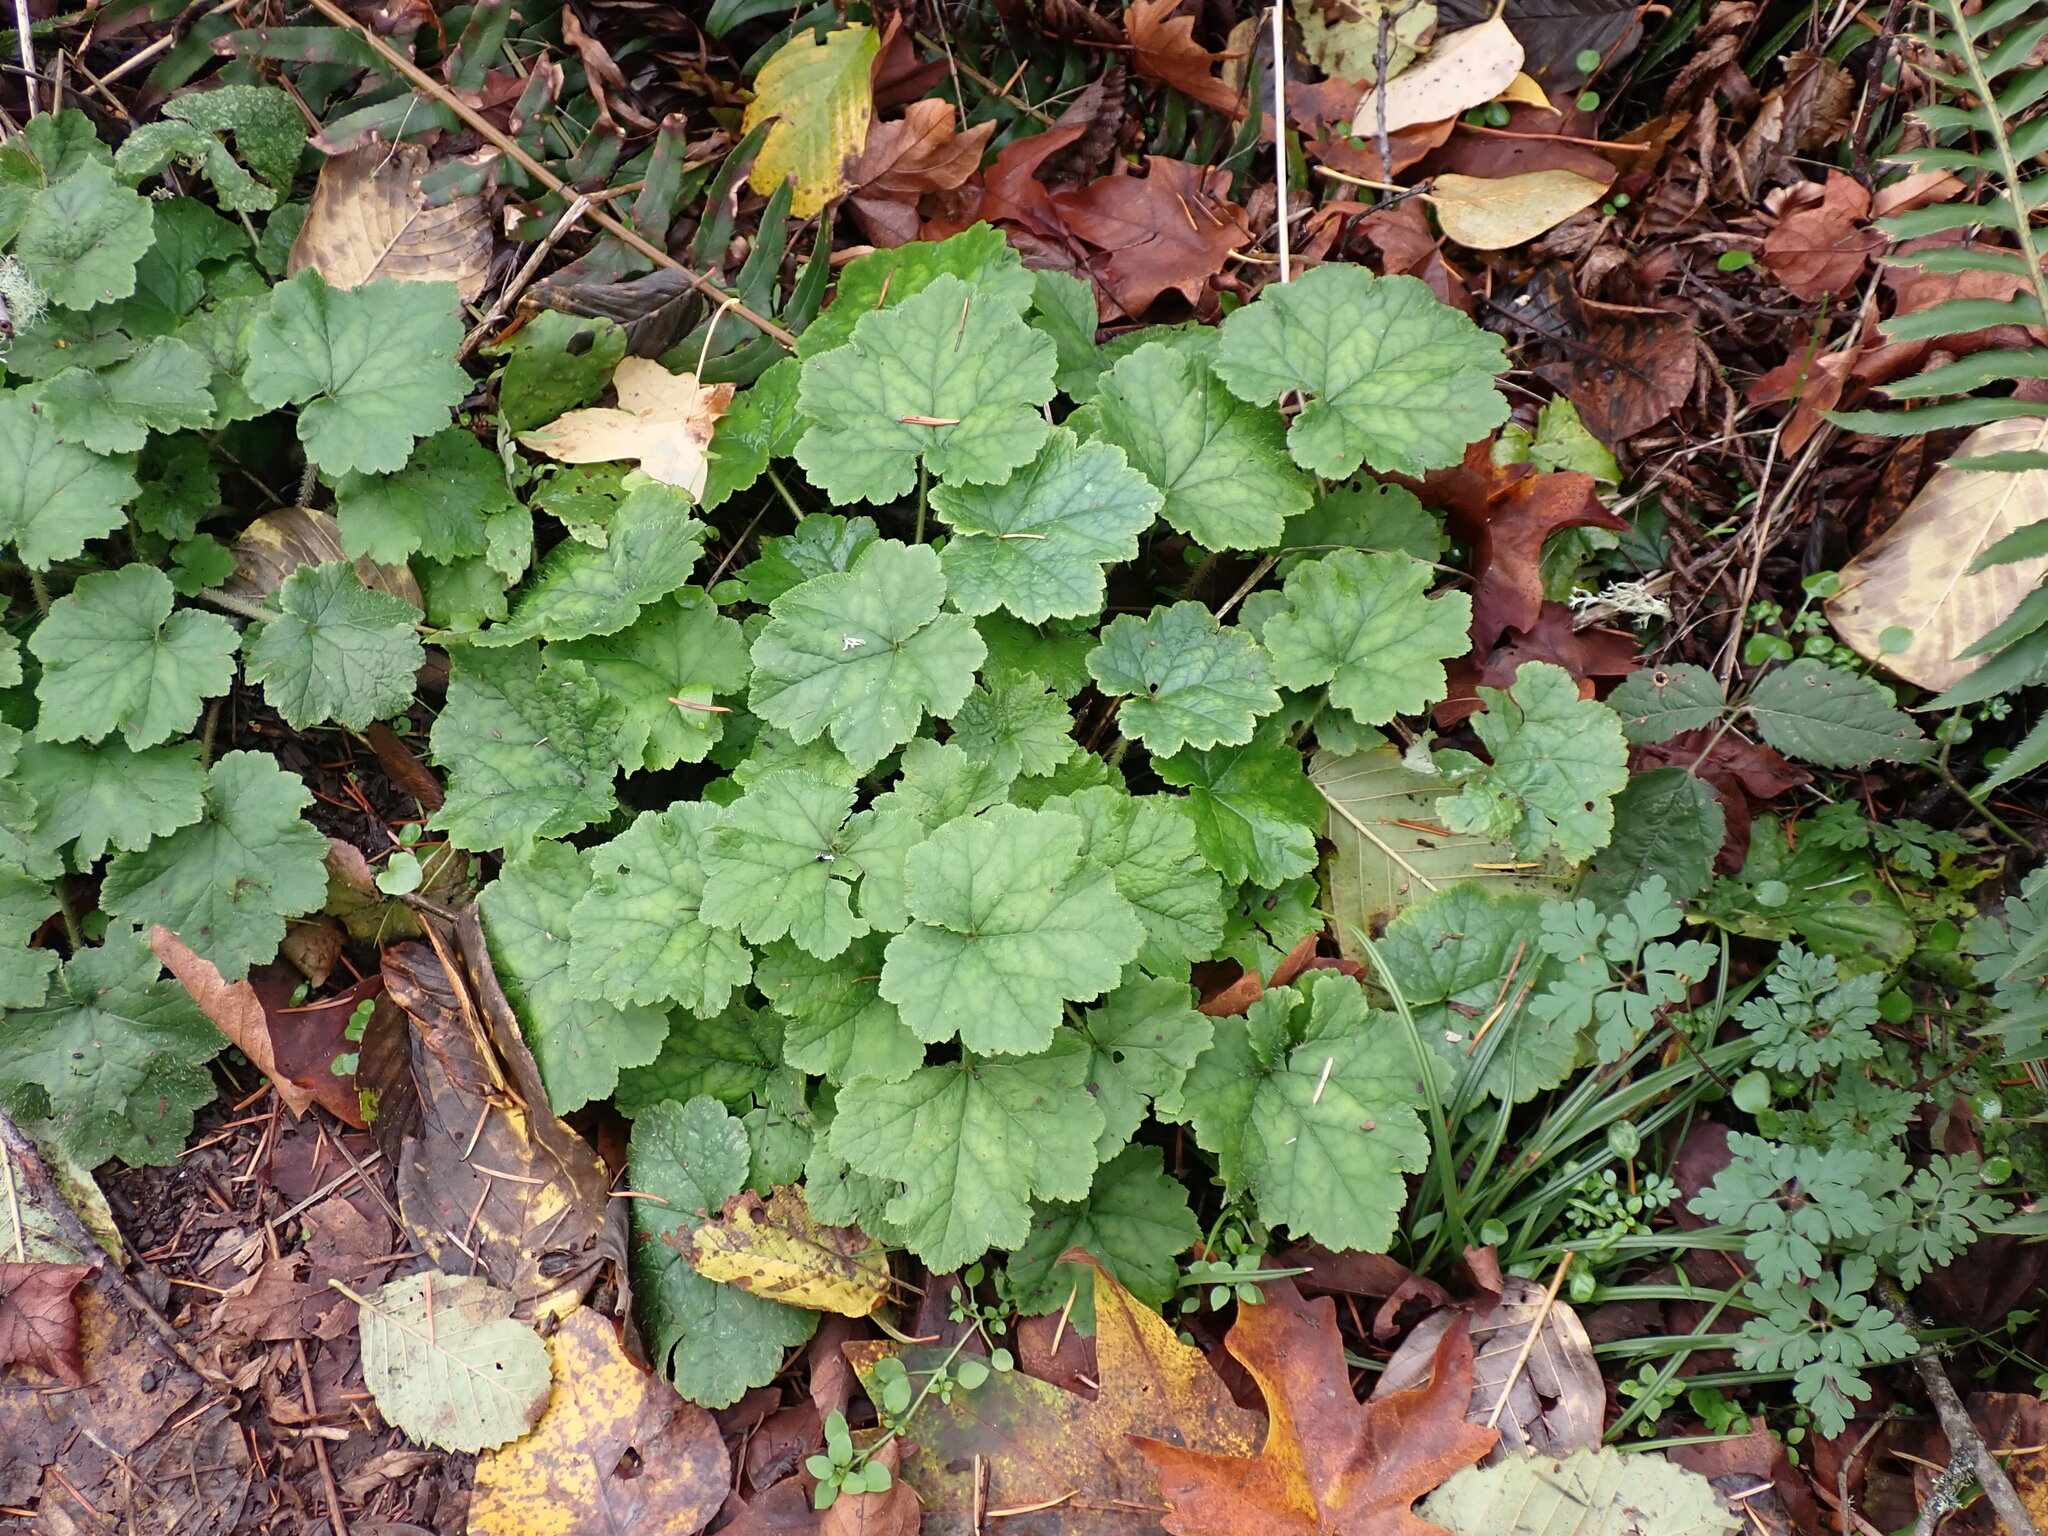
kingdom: Plantae
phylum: Tracheophyta
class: Magnoliopsida
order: Saxifragales
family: Saxifragaceae
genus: Tellima
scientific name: Tellima grandiflora
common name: Fringecups
